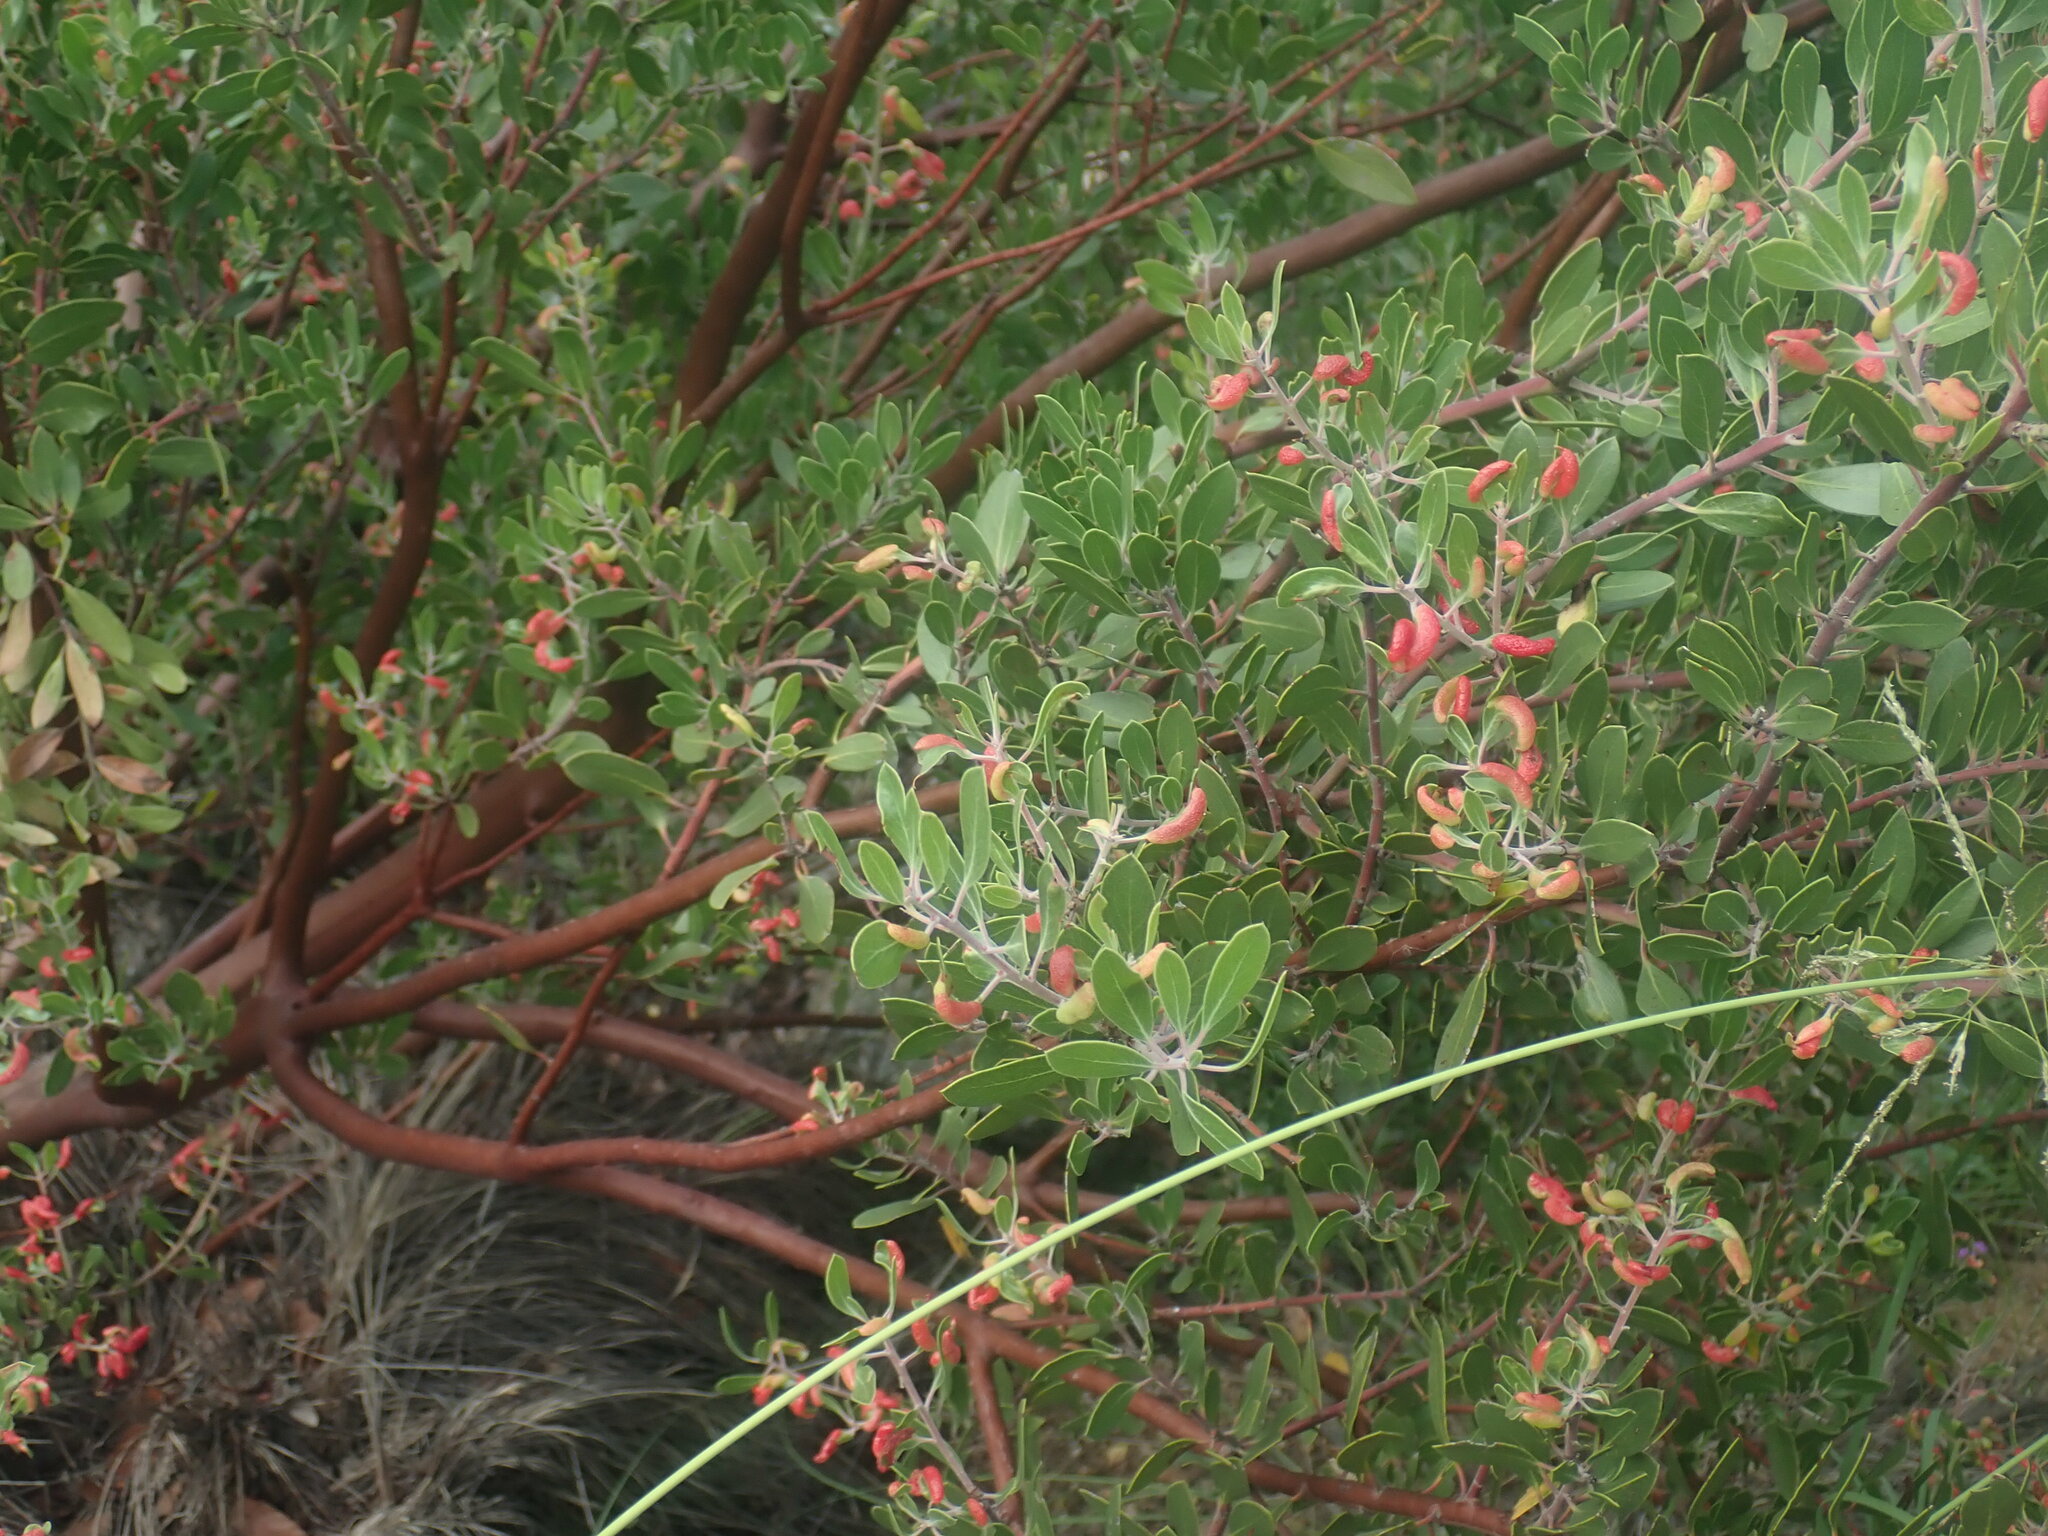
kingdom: Plantae
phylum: Tracheophyta
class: Magnoliopsida
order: Ericales
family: Ericaceae
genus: Arctostaphylos
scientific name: Arctostaphylos pungens
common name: Mexican manzanita
